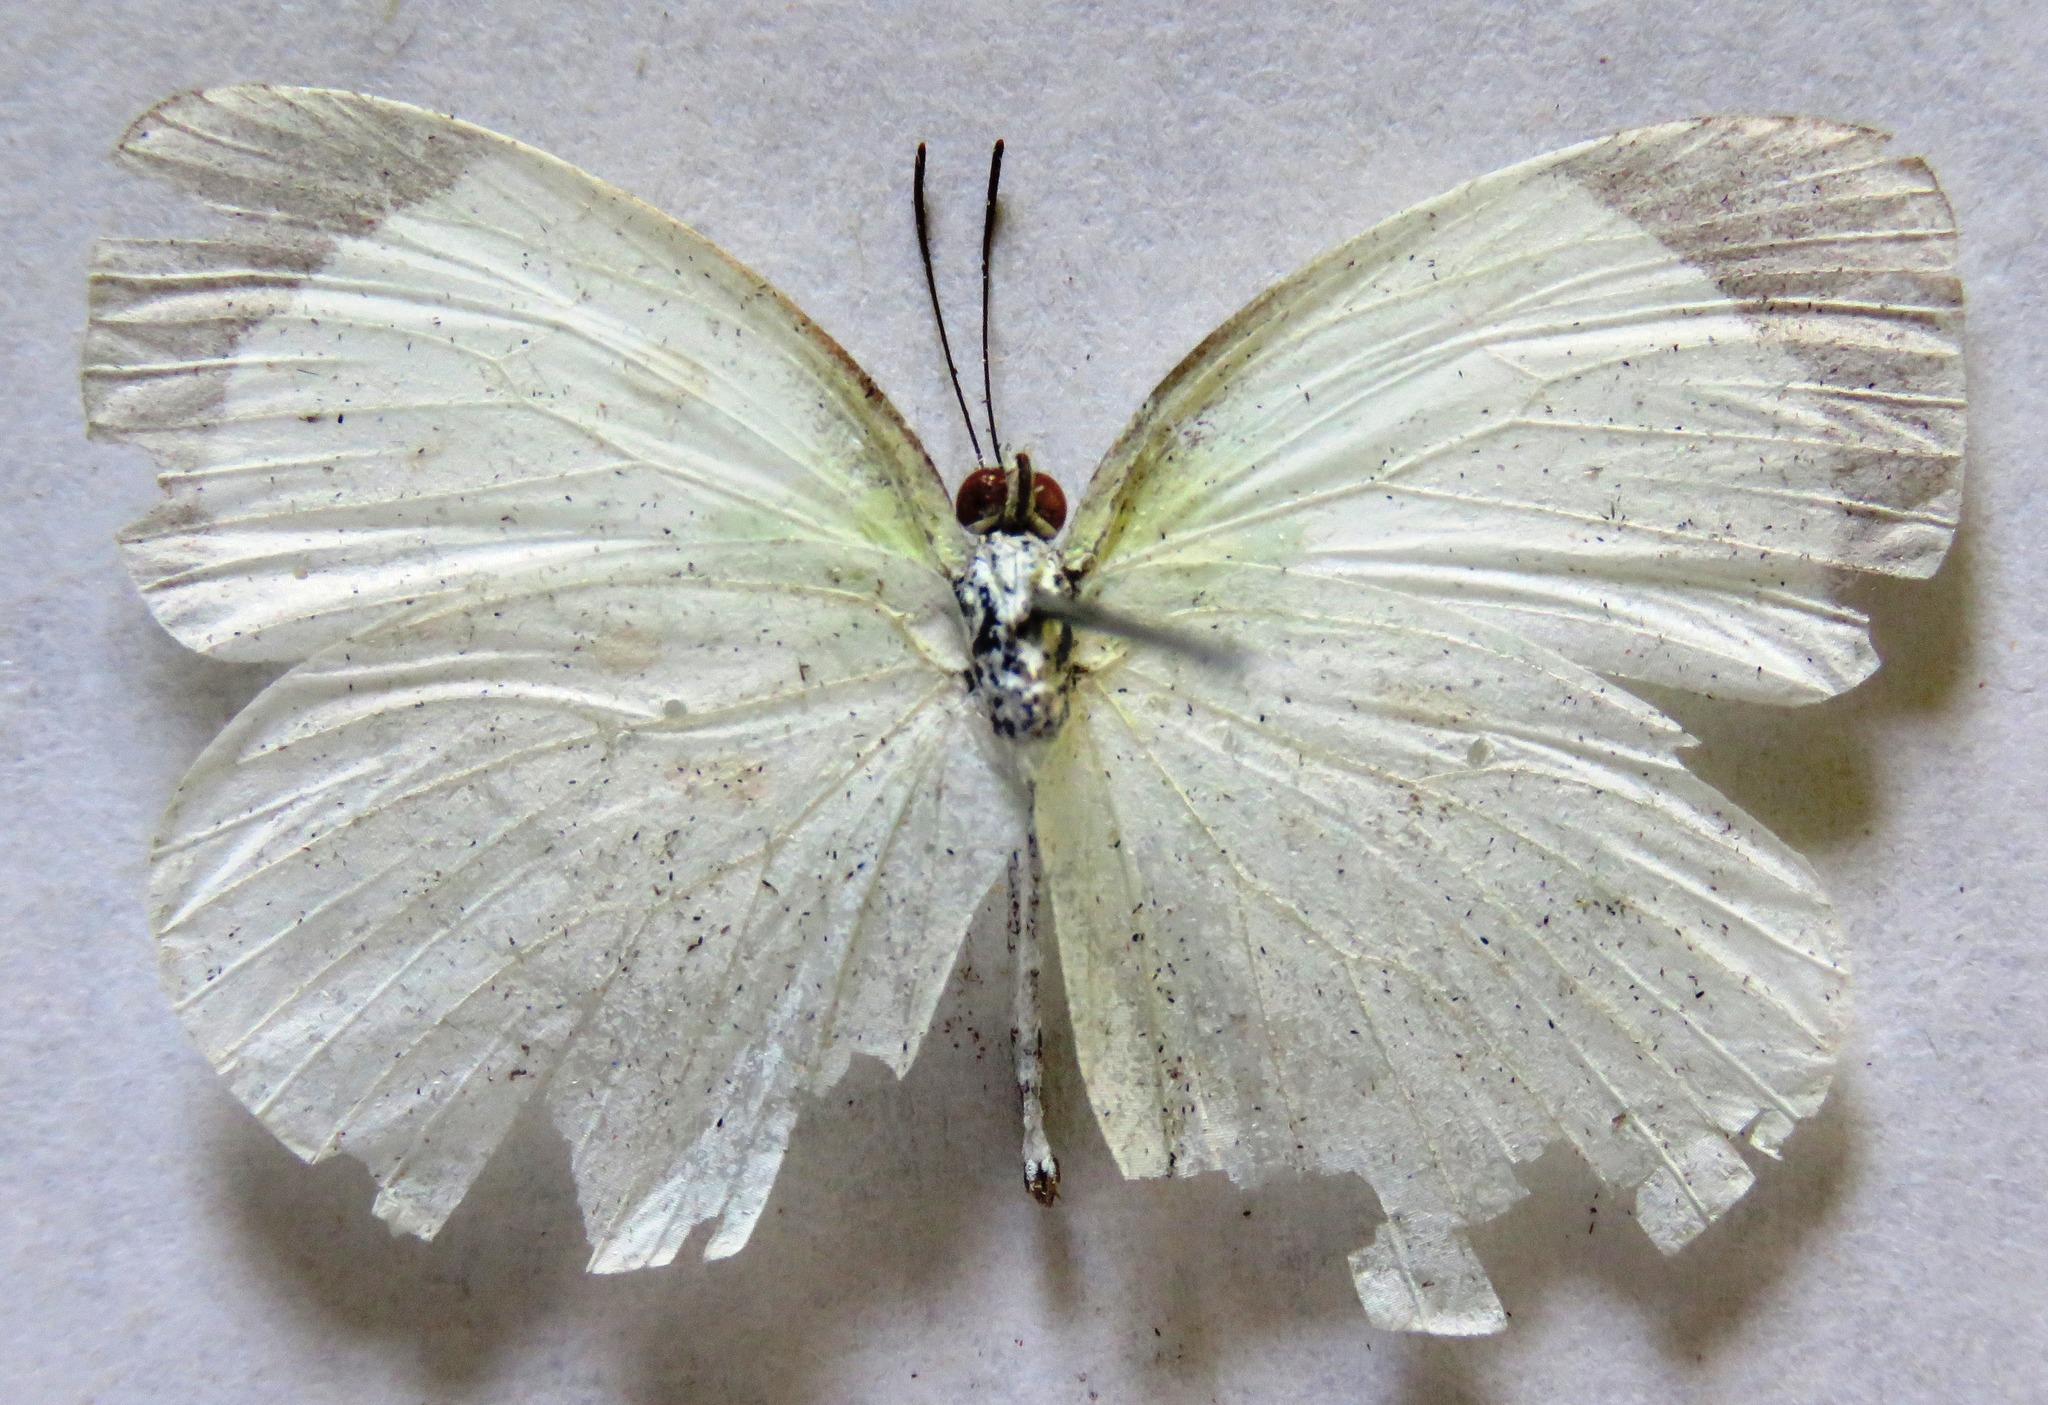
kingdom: Animalia
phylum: Arthropoda
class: Insecta
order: Lepidoptera
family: Pieridae
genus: Abaeis
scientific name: Abaeis albula
